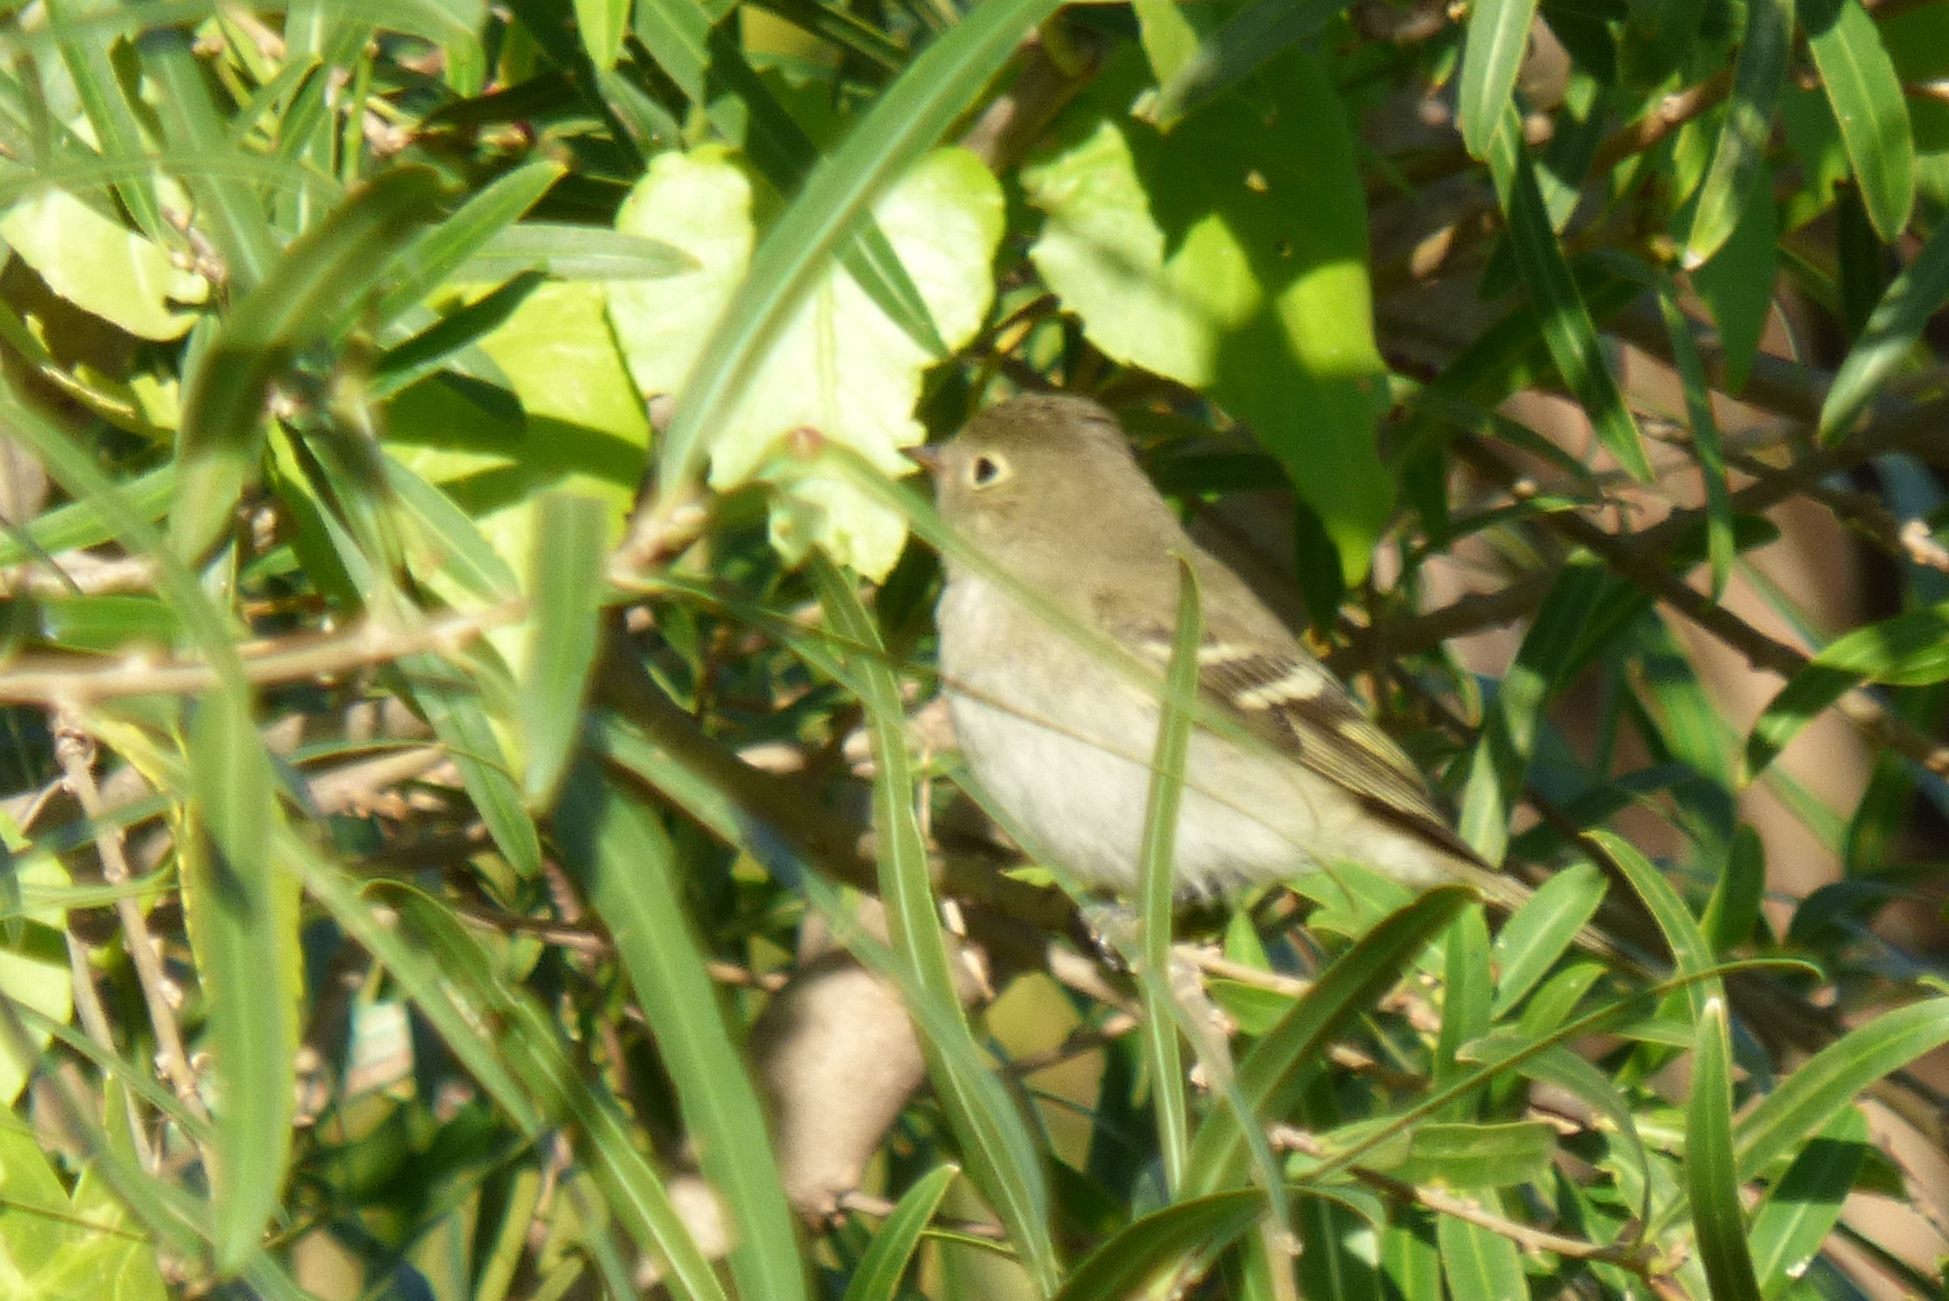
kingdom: Animalia
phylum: Chordata
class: Aves
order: Passeriformes
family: Tyrannidae
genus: Elaenia
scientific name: Elaenia albiceps
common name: White-crested elaenia
